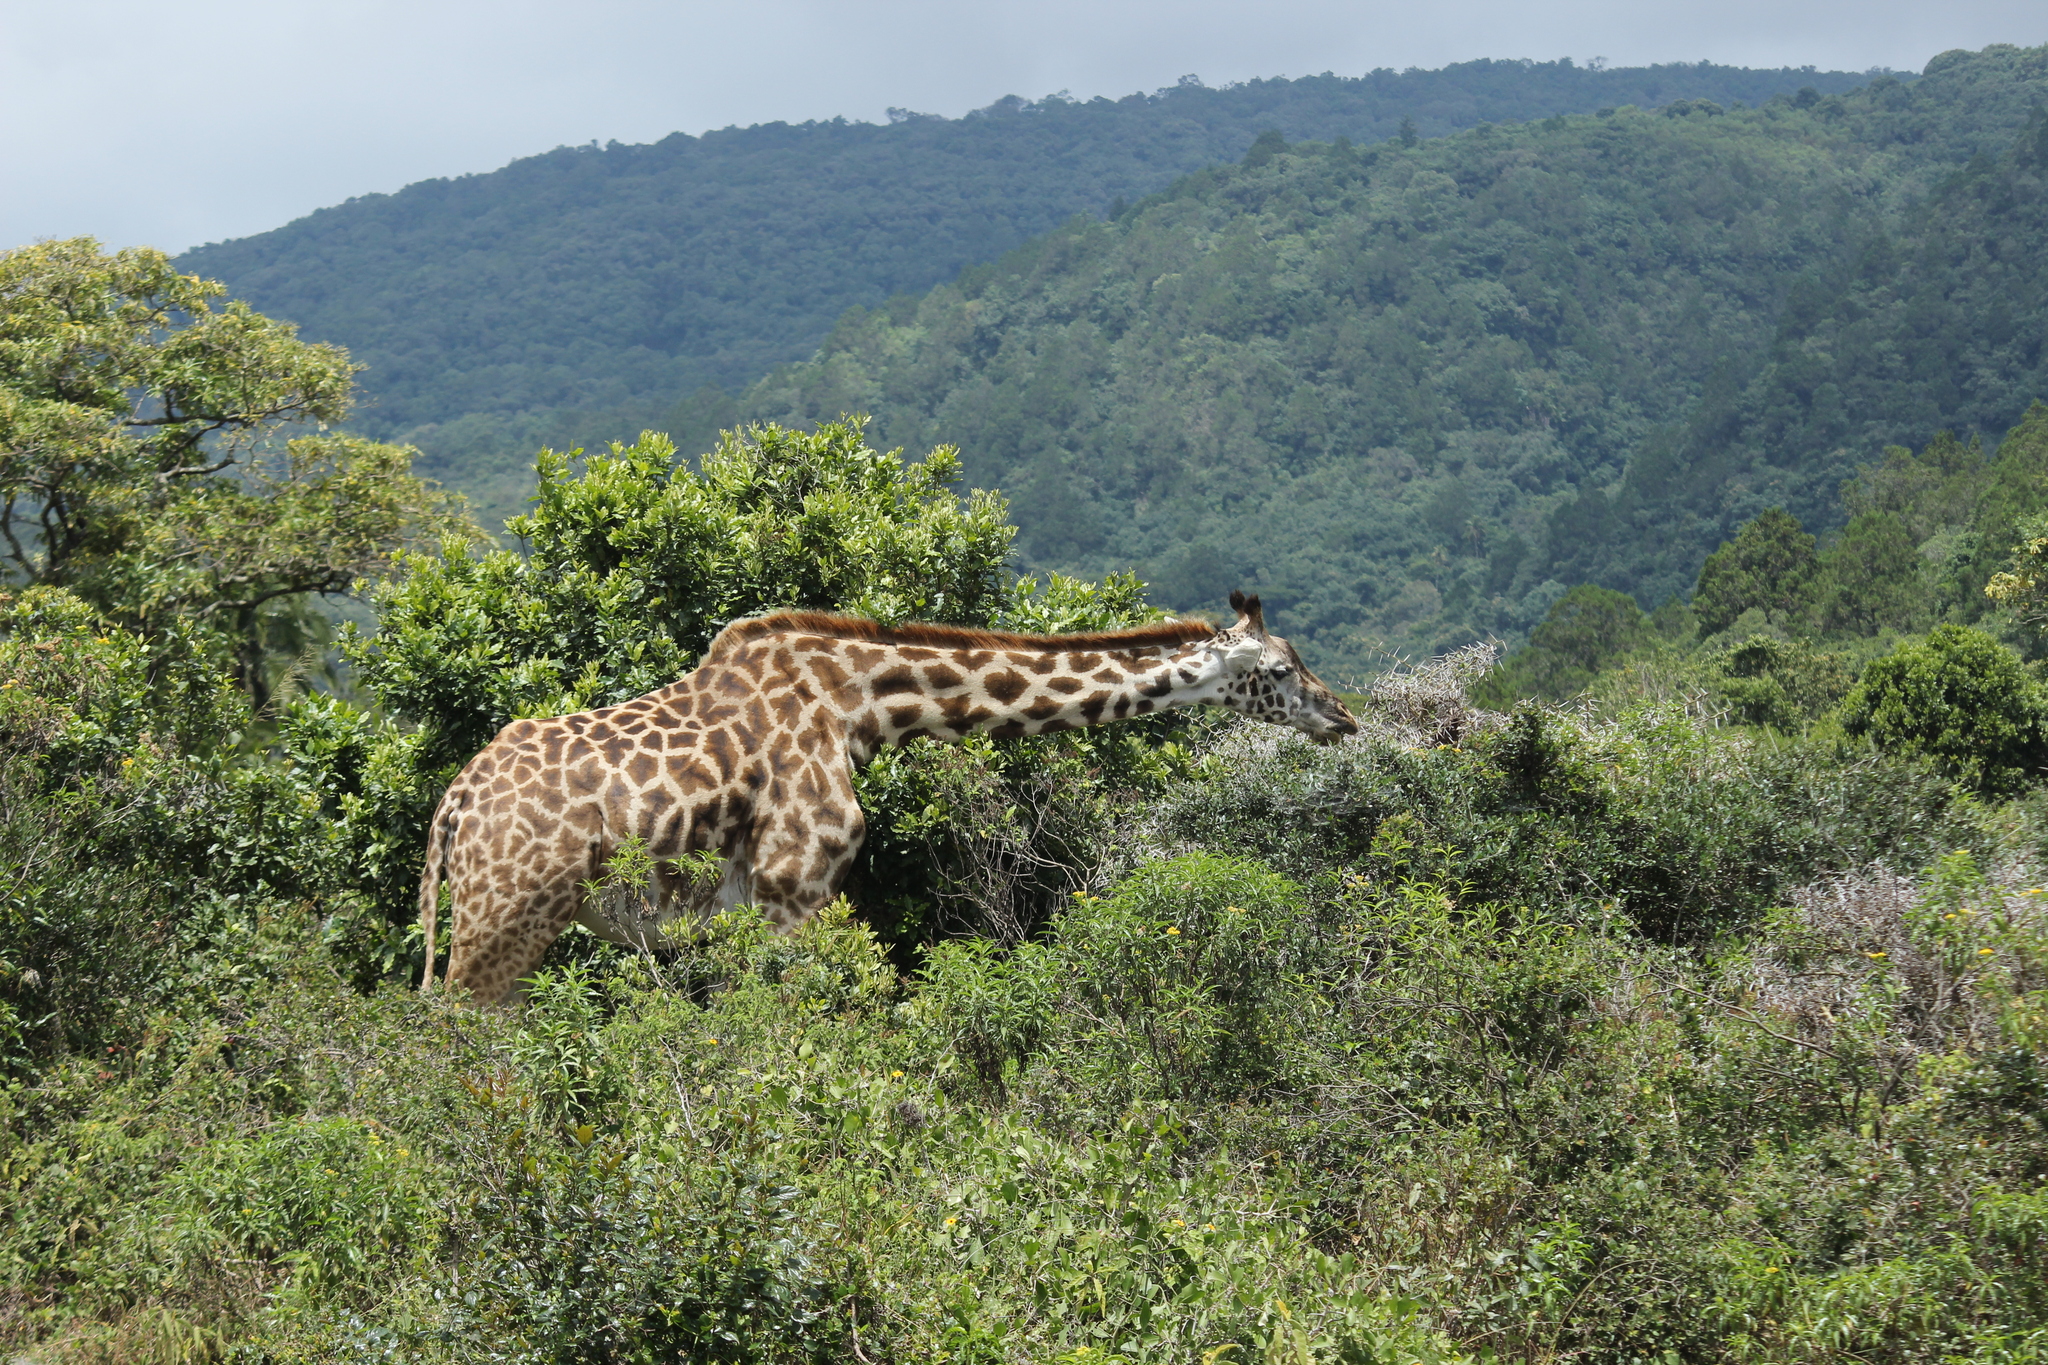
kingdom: Animalia
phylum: Chordata
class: Mammalia
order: Artiodactyla
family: Giraffidae
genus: Giraffa
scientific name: Giraffa tippelskirchi
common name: Masai giraffe
